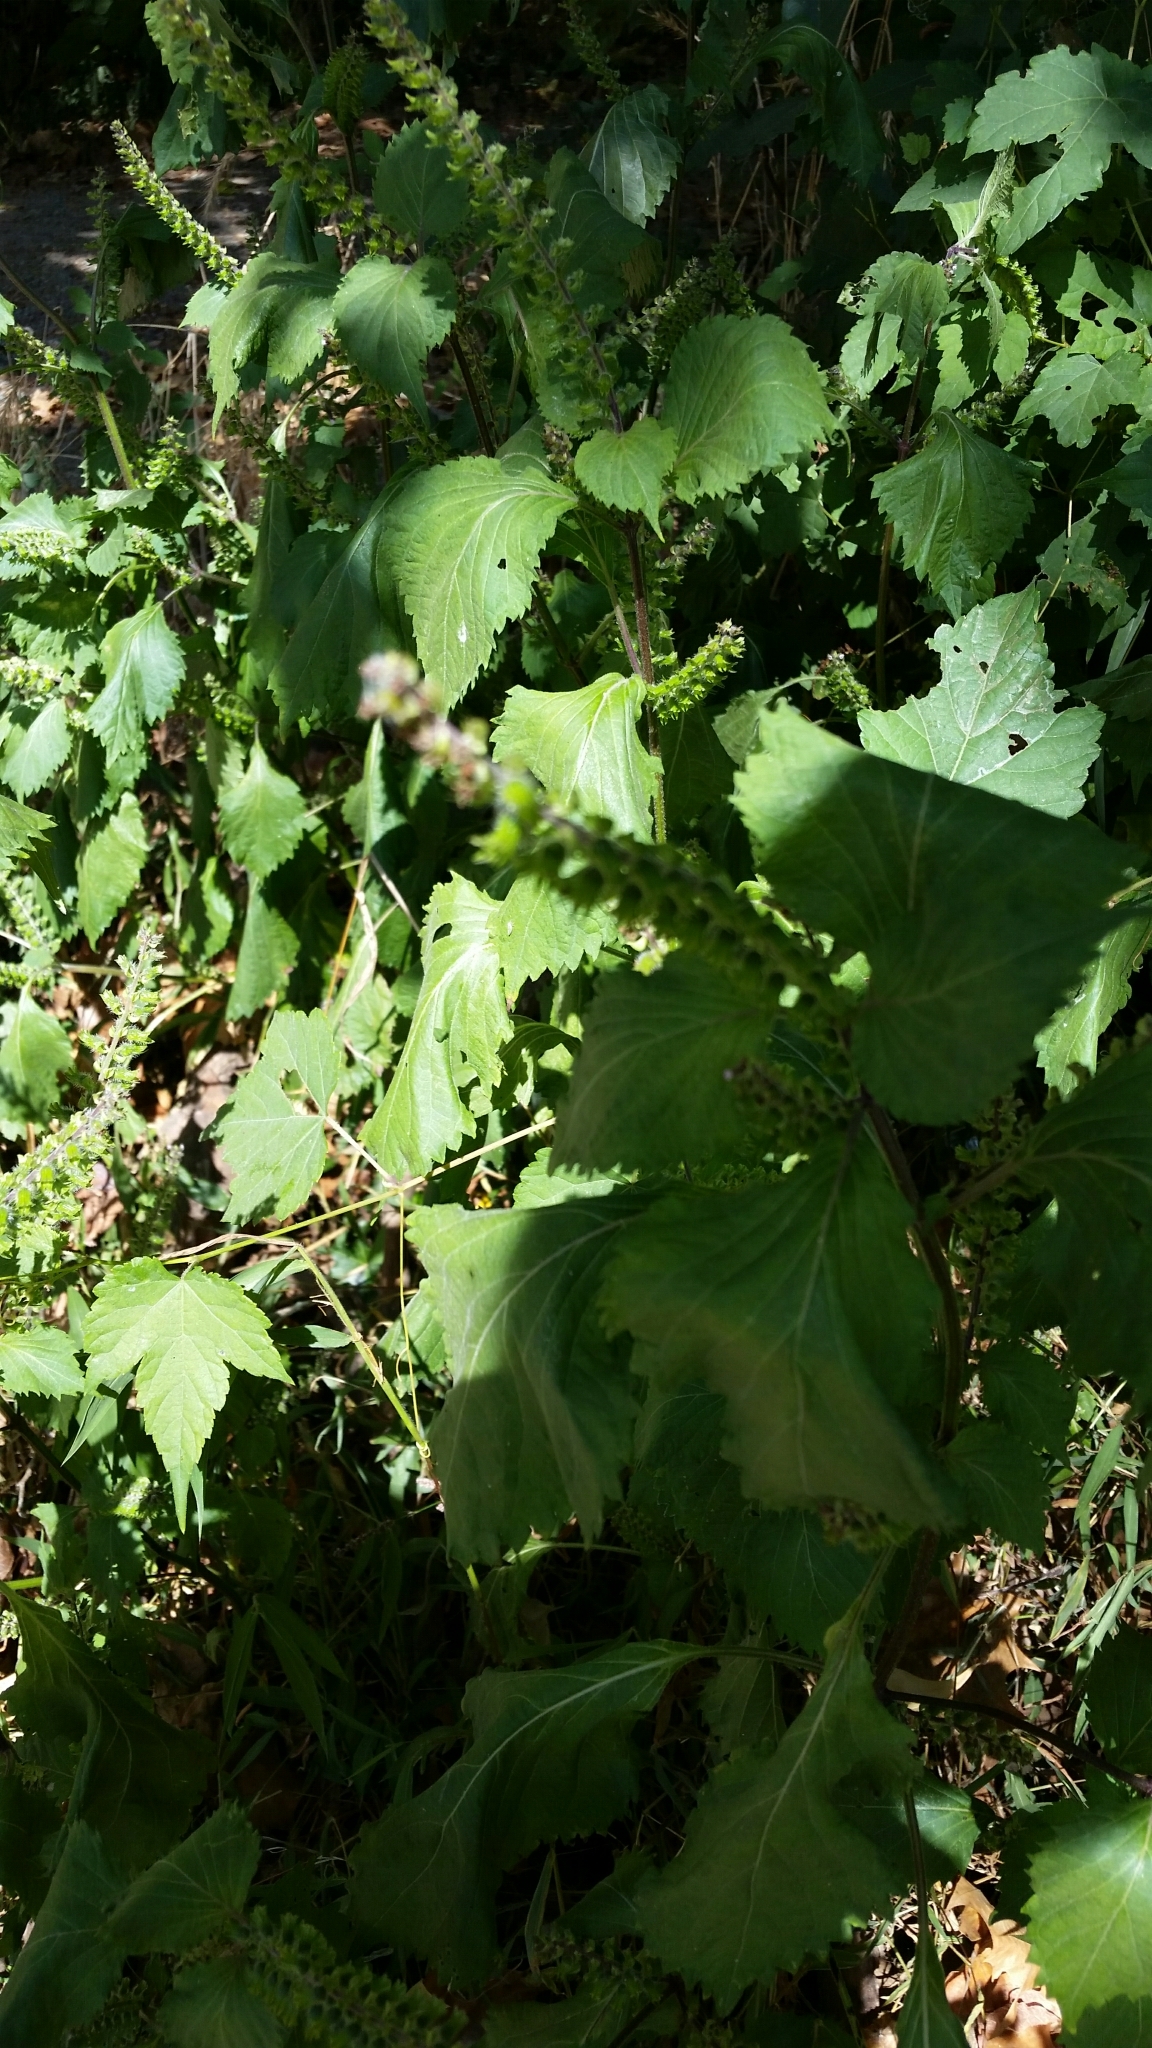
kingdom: Plantae
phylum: Tracheophyta
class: Magnoliopsida
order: Lamiales
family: Lamiaceae
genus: Perilla
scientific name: Perilla frutescens
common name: Perilla
